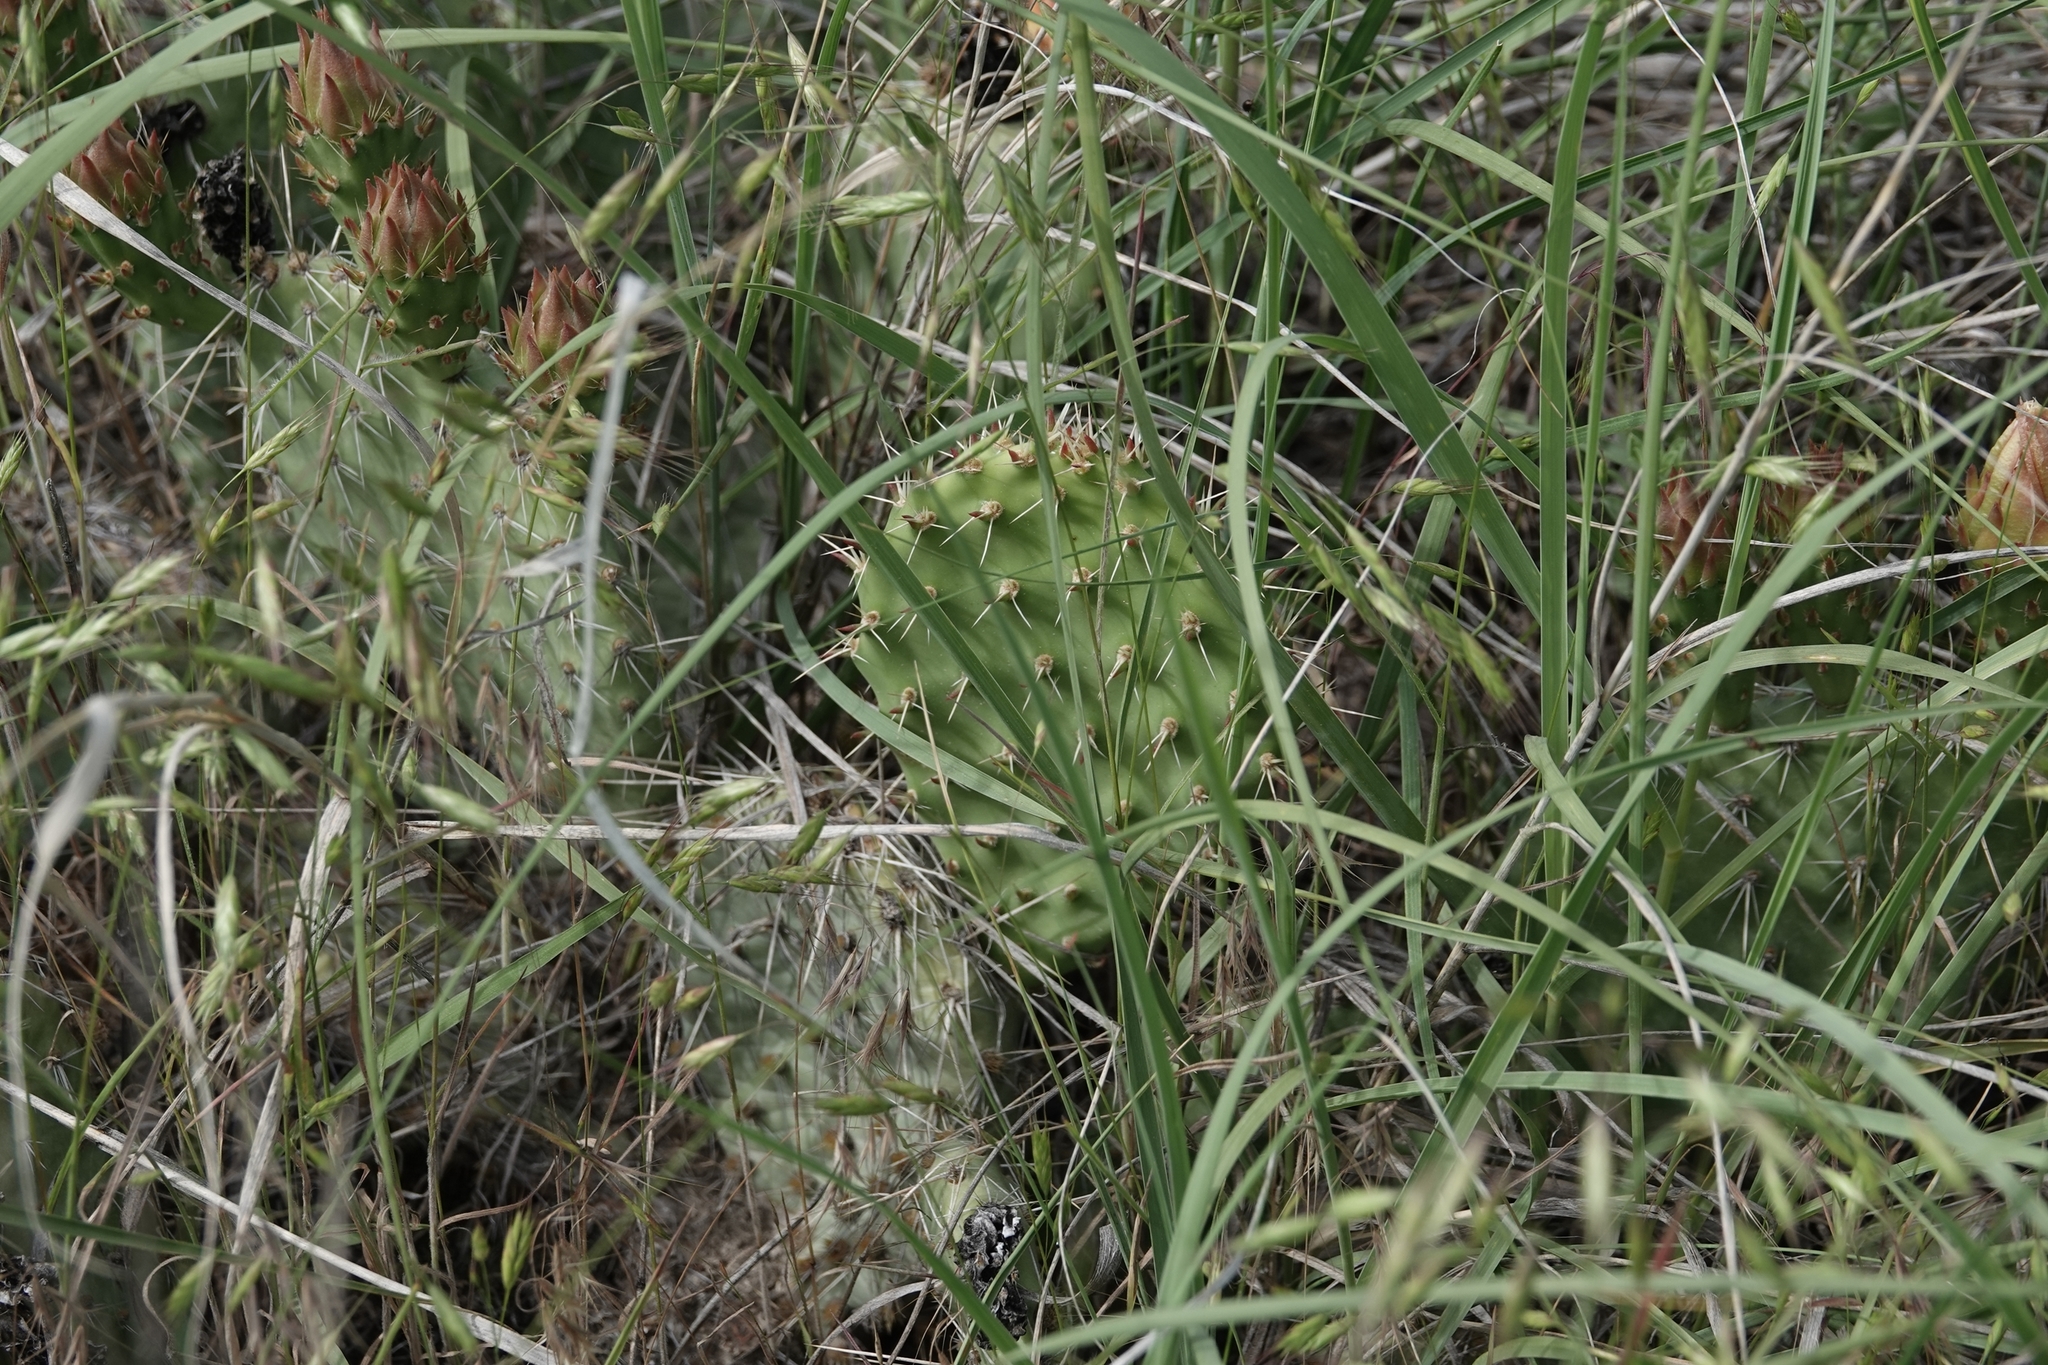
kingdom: Plantae
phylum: Tracheophyta
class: Magnoliopsida
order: Caryophyllales
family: Cactaceae
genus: Opuntia
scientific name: Opuntia polyacantha
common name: Plains prickly-pear
